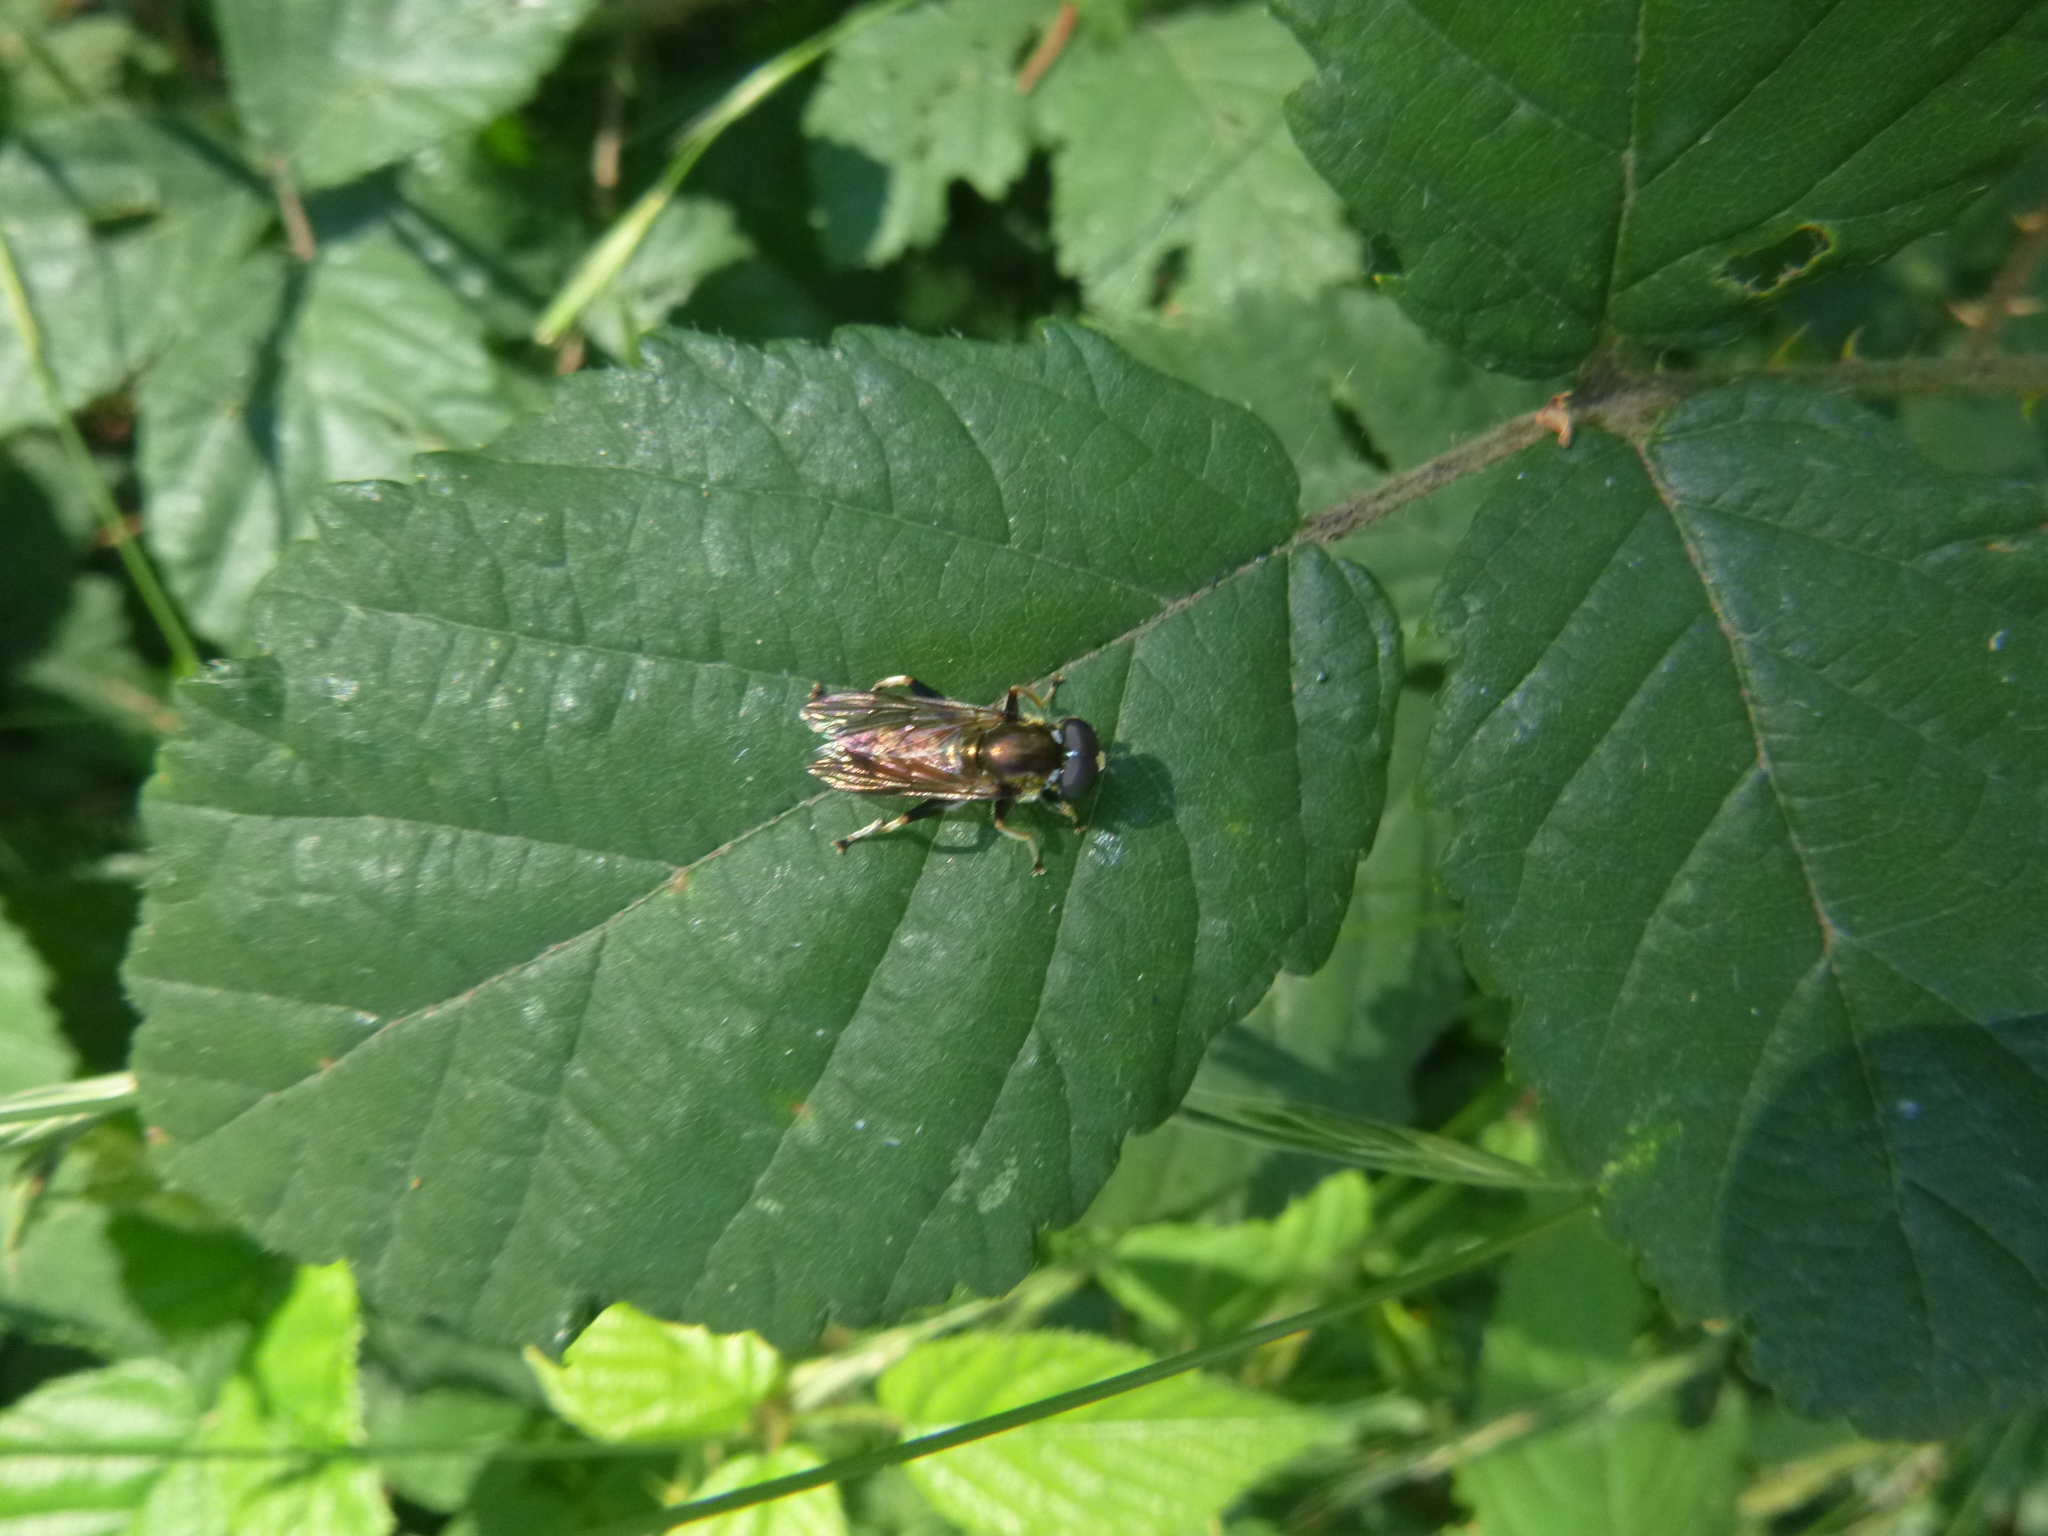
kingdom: Animalia
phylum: Arthropoda
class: Insecta
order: Diptera
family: Syrphidae
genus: Xylota
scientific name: Xylota segnis
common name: Brown-toed forest fly
